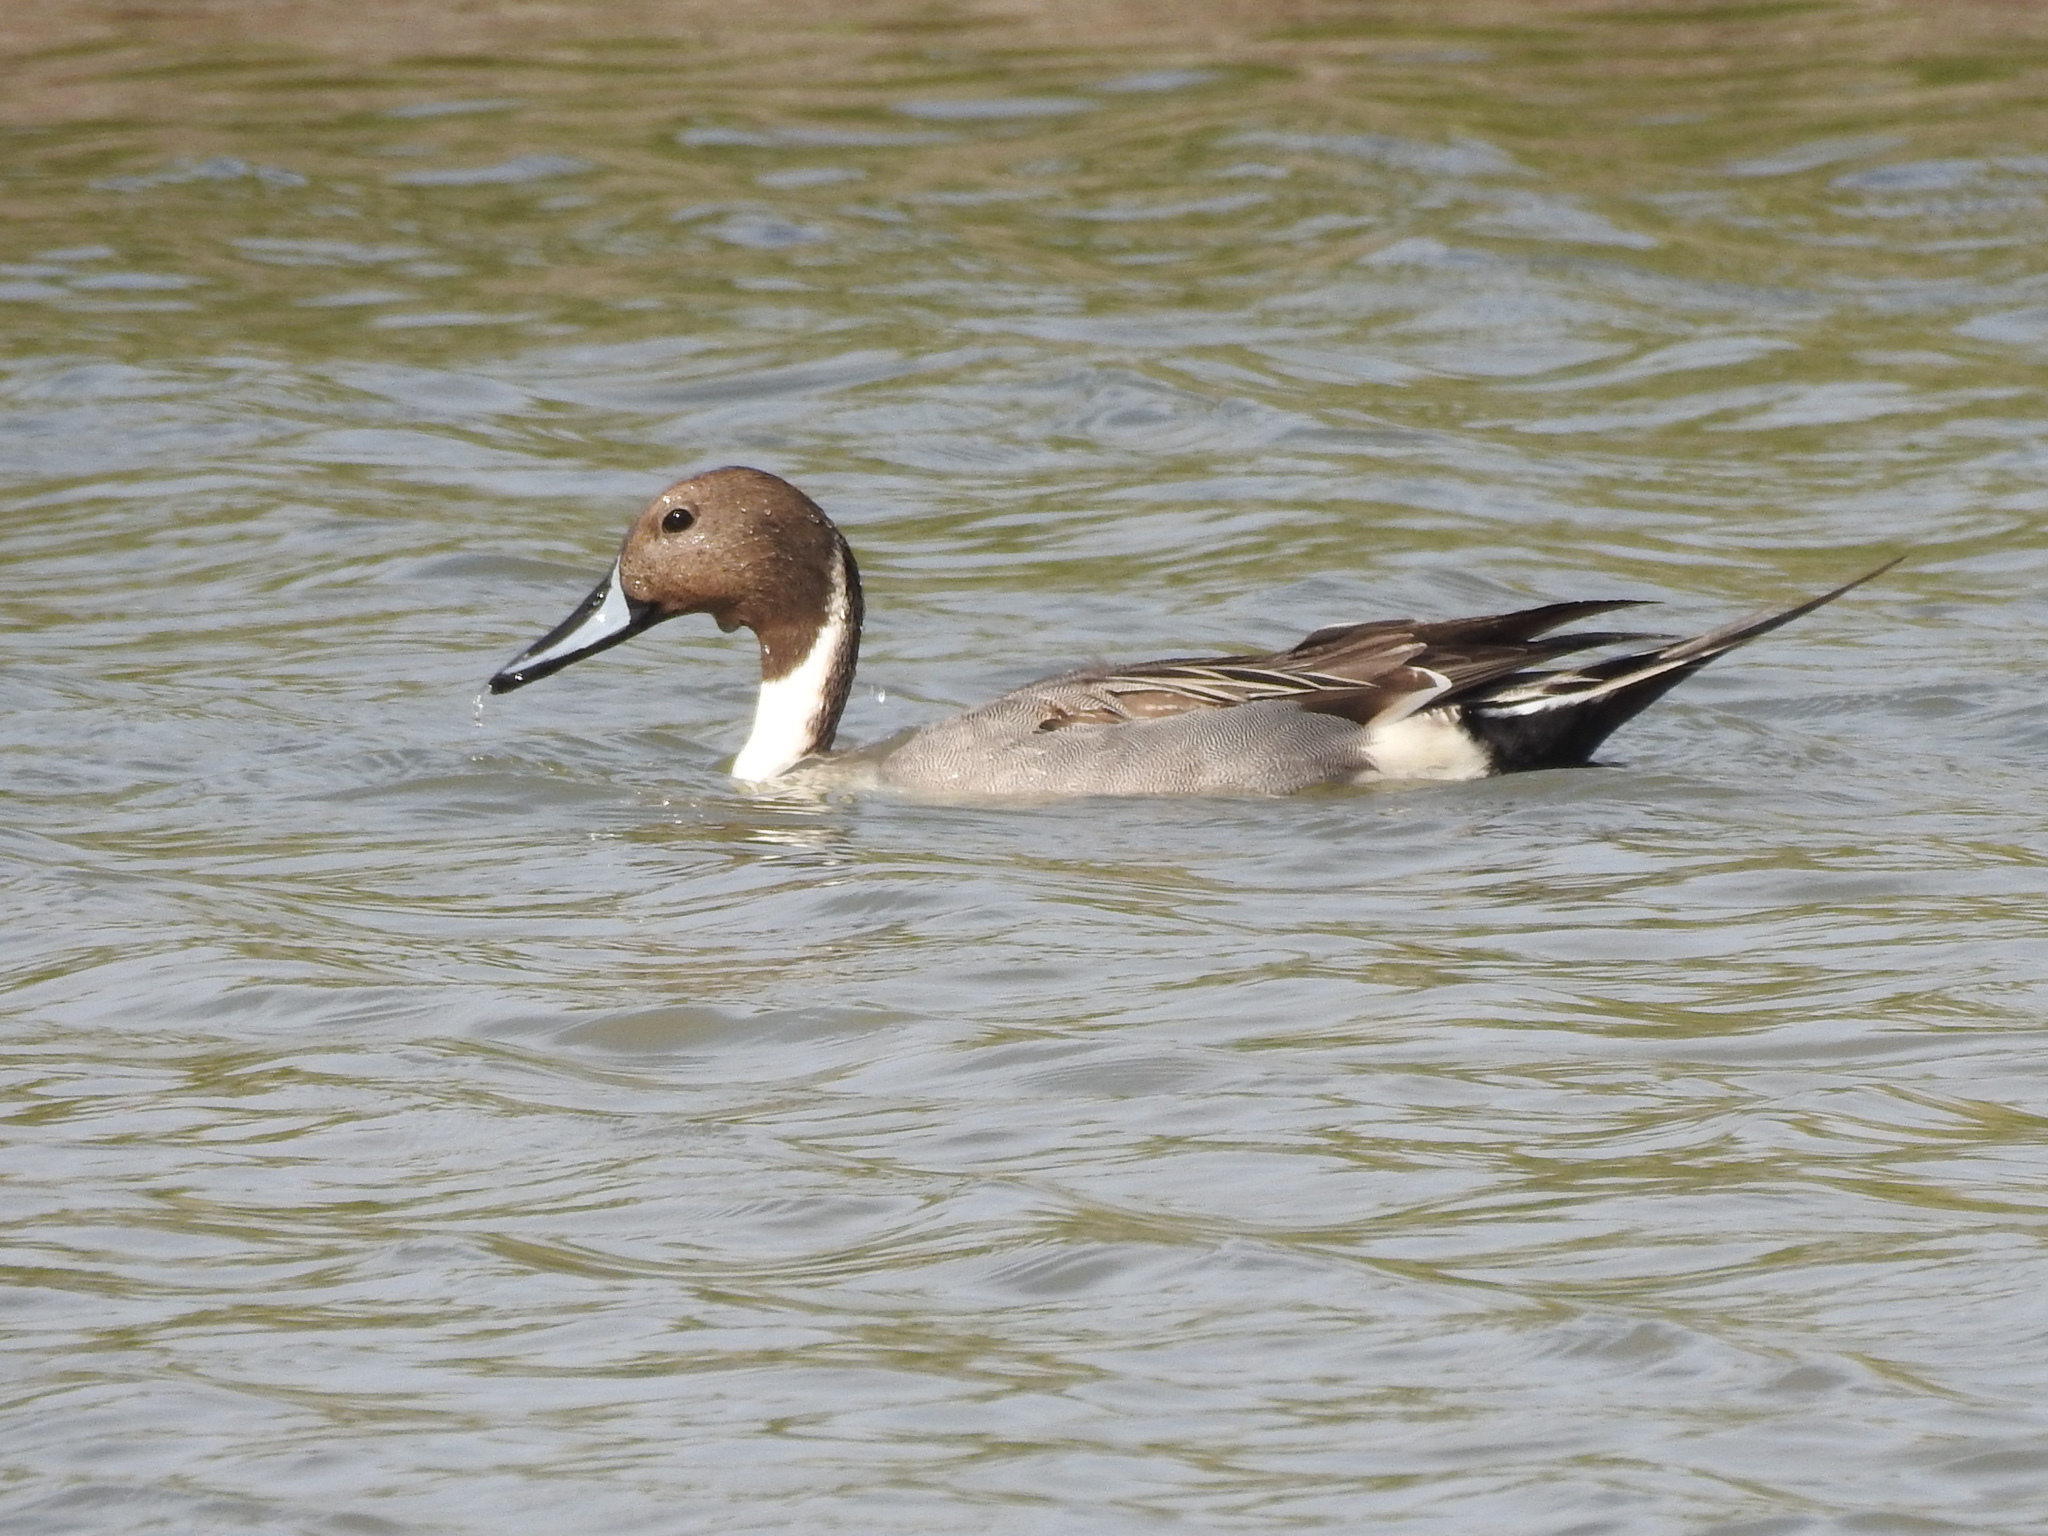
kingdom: Animalia
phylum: Chordata
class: Aves
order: Anseriformes
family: Anatidae
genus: Anas
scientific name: Anas acuta
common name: Northern pintail
